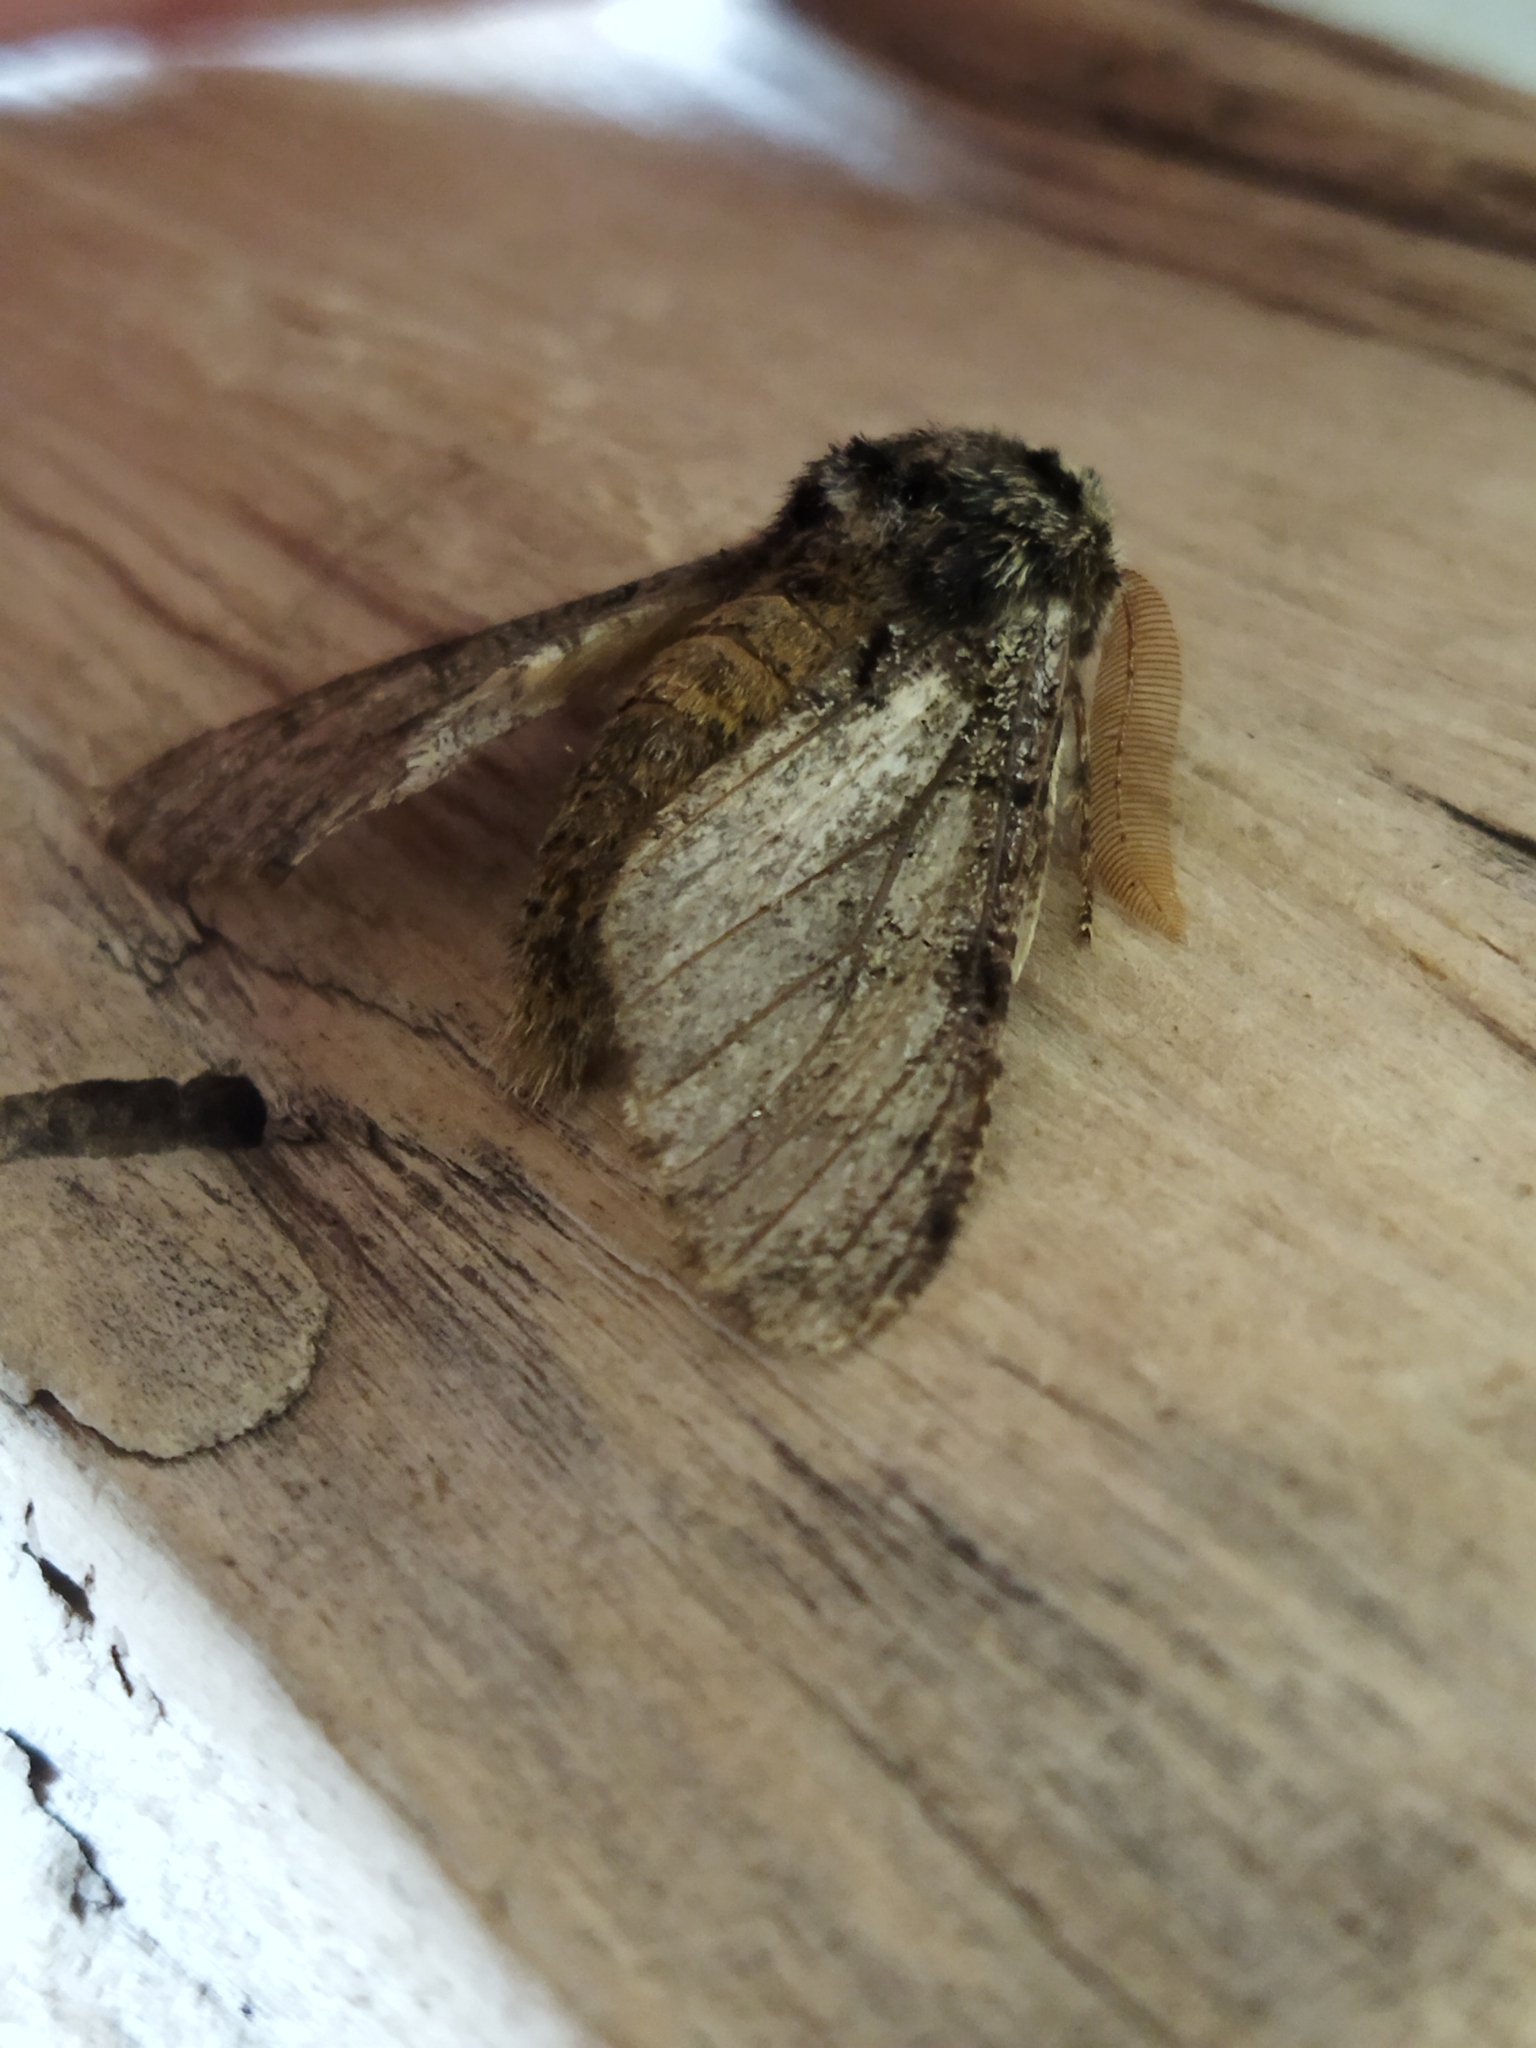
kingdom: Animalia
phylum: Arthropoda
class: Insecta
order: Lepidoptera
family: Geometridae
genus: Biston
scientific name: Biston rosenbaueri
